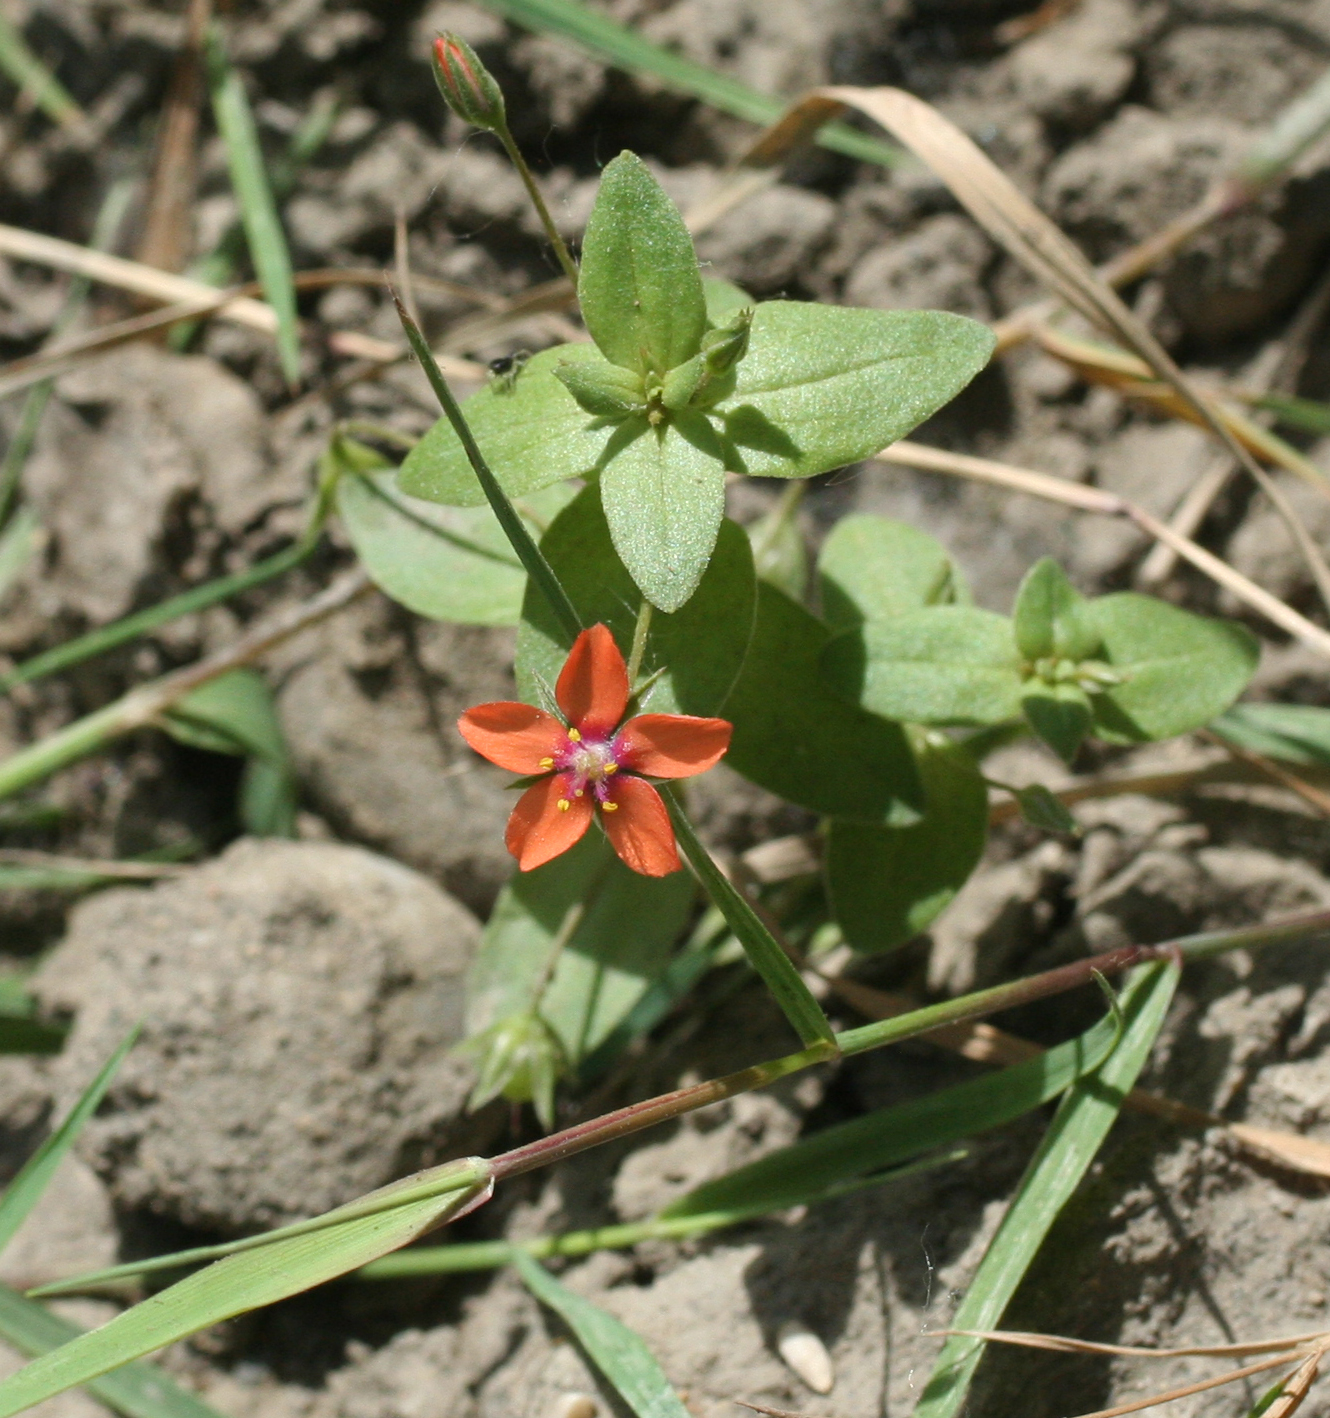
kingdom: Plantae
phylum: Tracheophyta
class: Magnoliopsida
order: Ericales
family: Primulaceae
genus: Lysimachia
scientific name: Lysimachia arvensis
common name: Scarlet pimpernel
